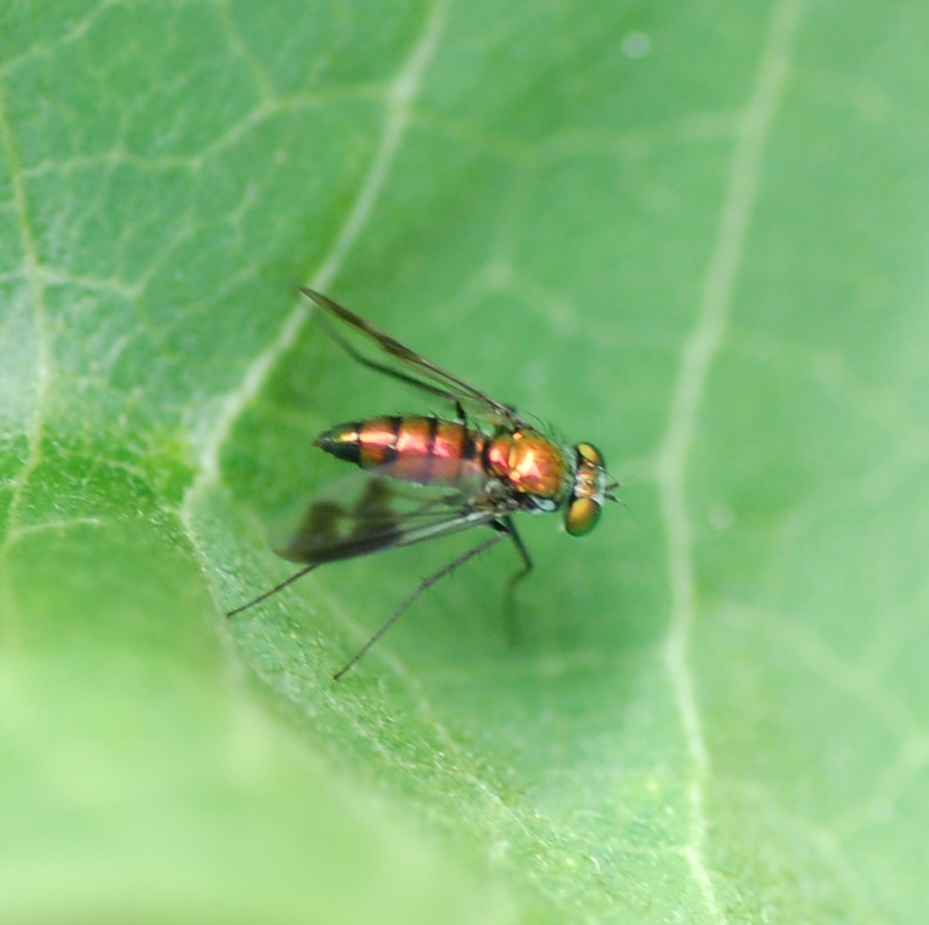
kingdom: Animalia
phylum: Arthropoda
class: Insecta
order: Diptera
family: Dolichopodidae
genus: Condylostylus
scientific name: Condylostylus patibulatus
